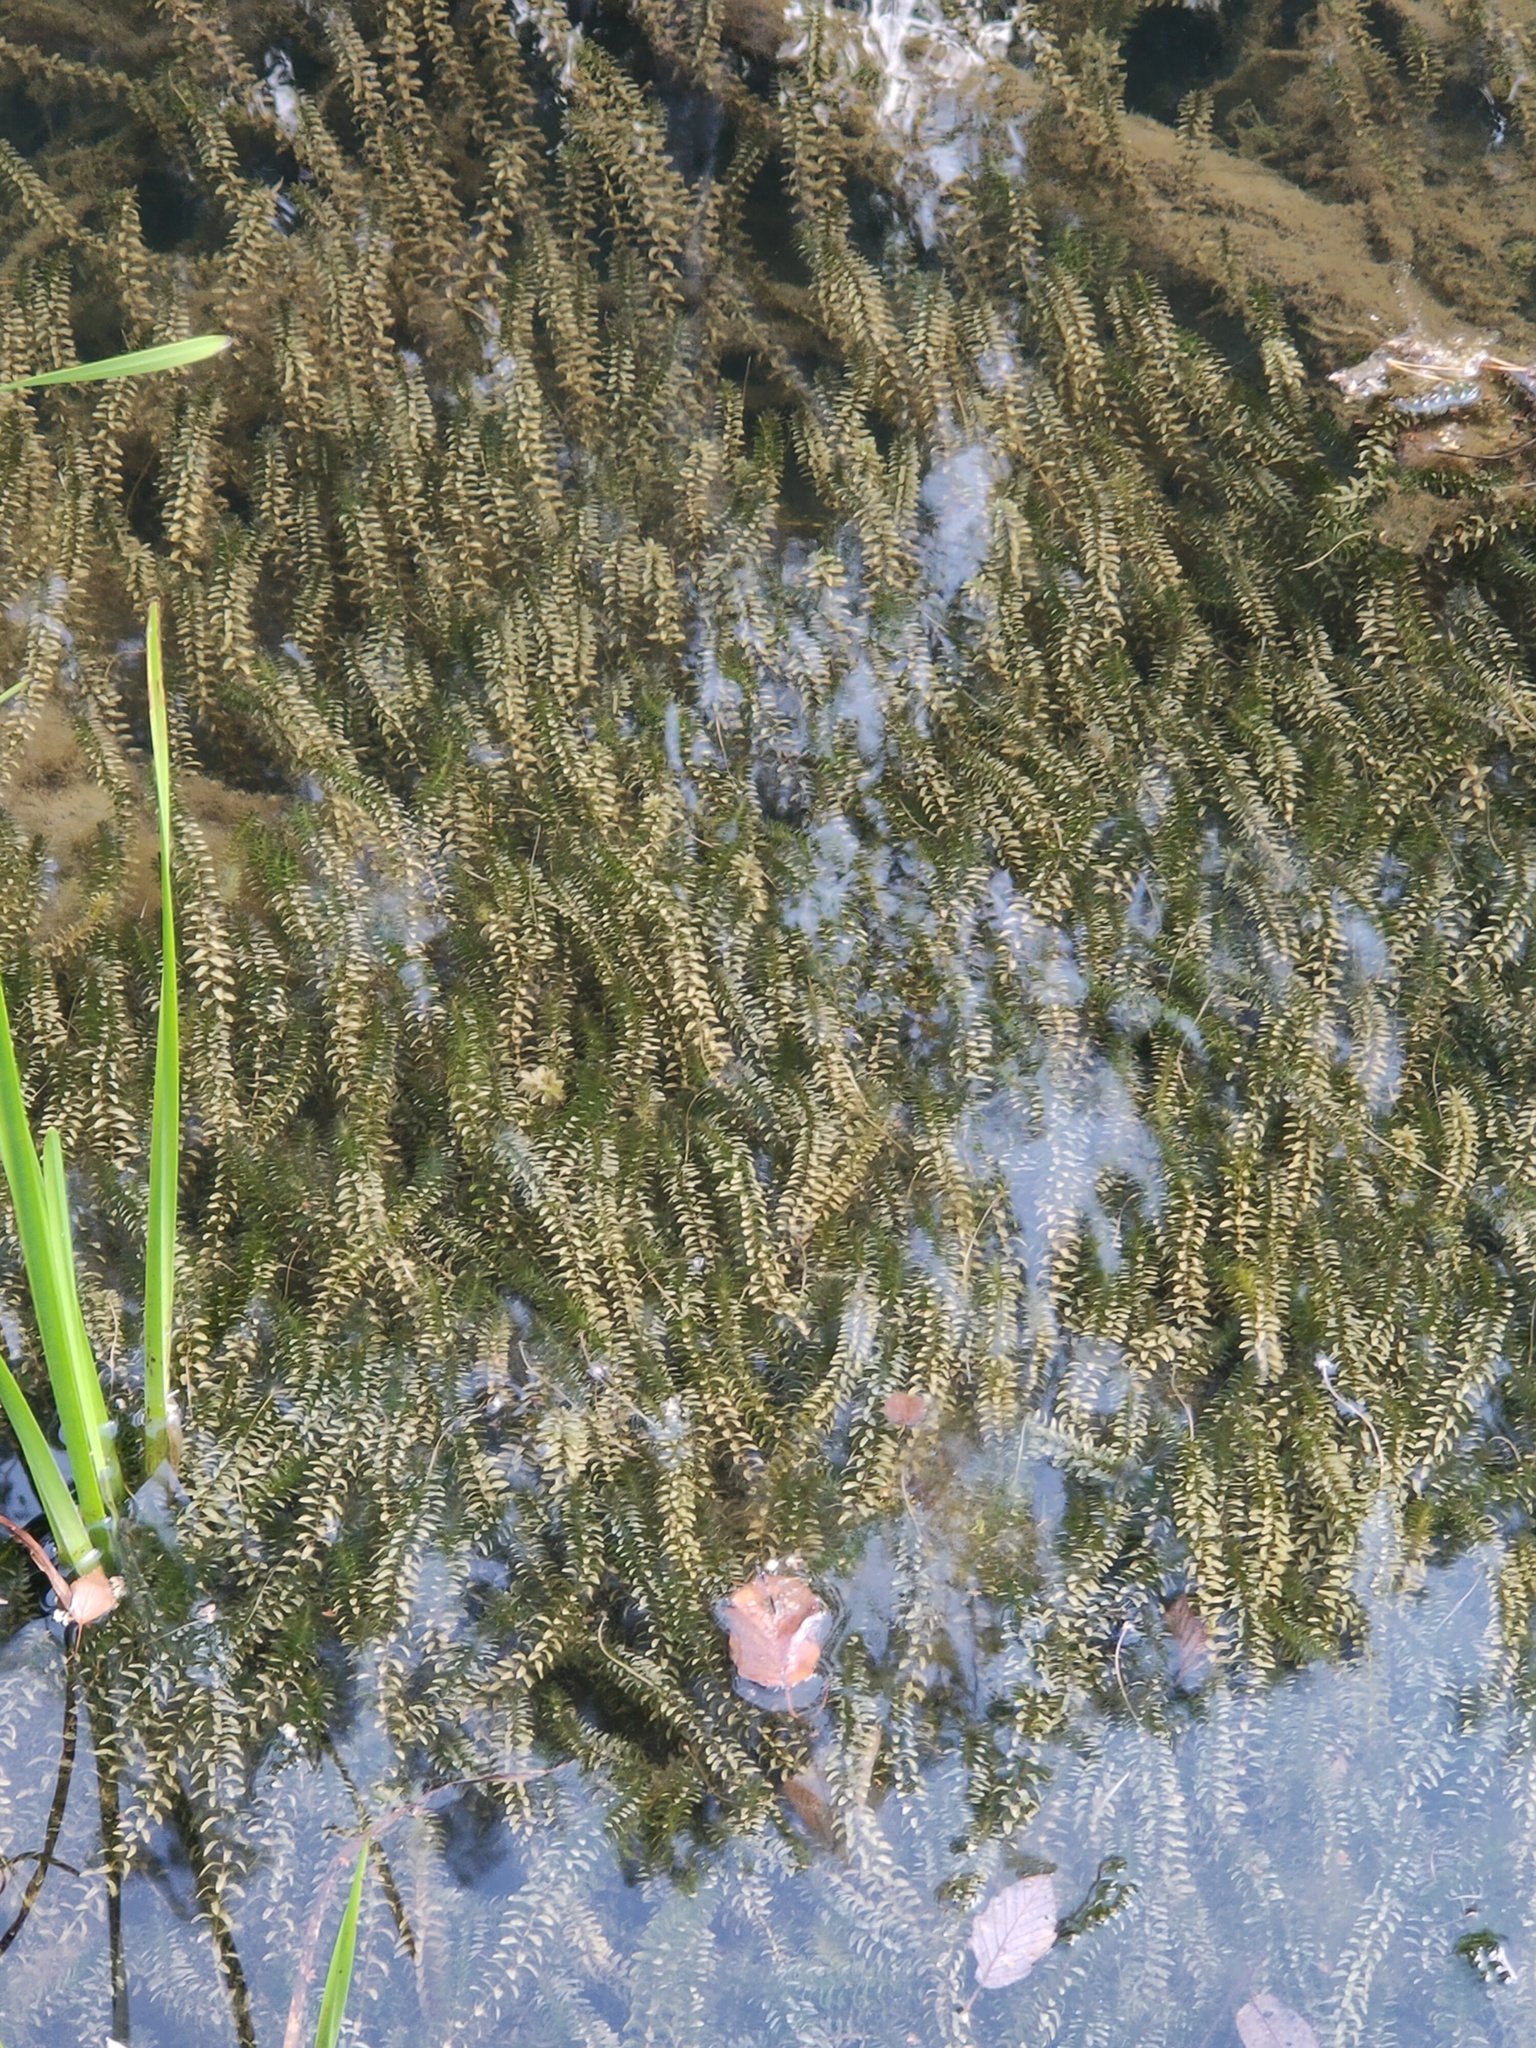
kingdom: Plantae
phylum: Tracheophyta
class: Liliopsida
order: Alismatales
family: Hydrocharitaceae
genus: Elodea
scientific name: Elodea canadensis
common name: Canadian waterweed
